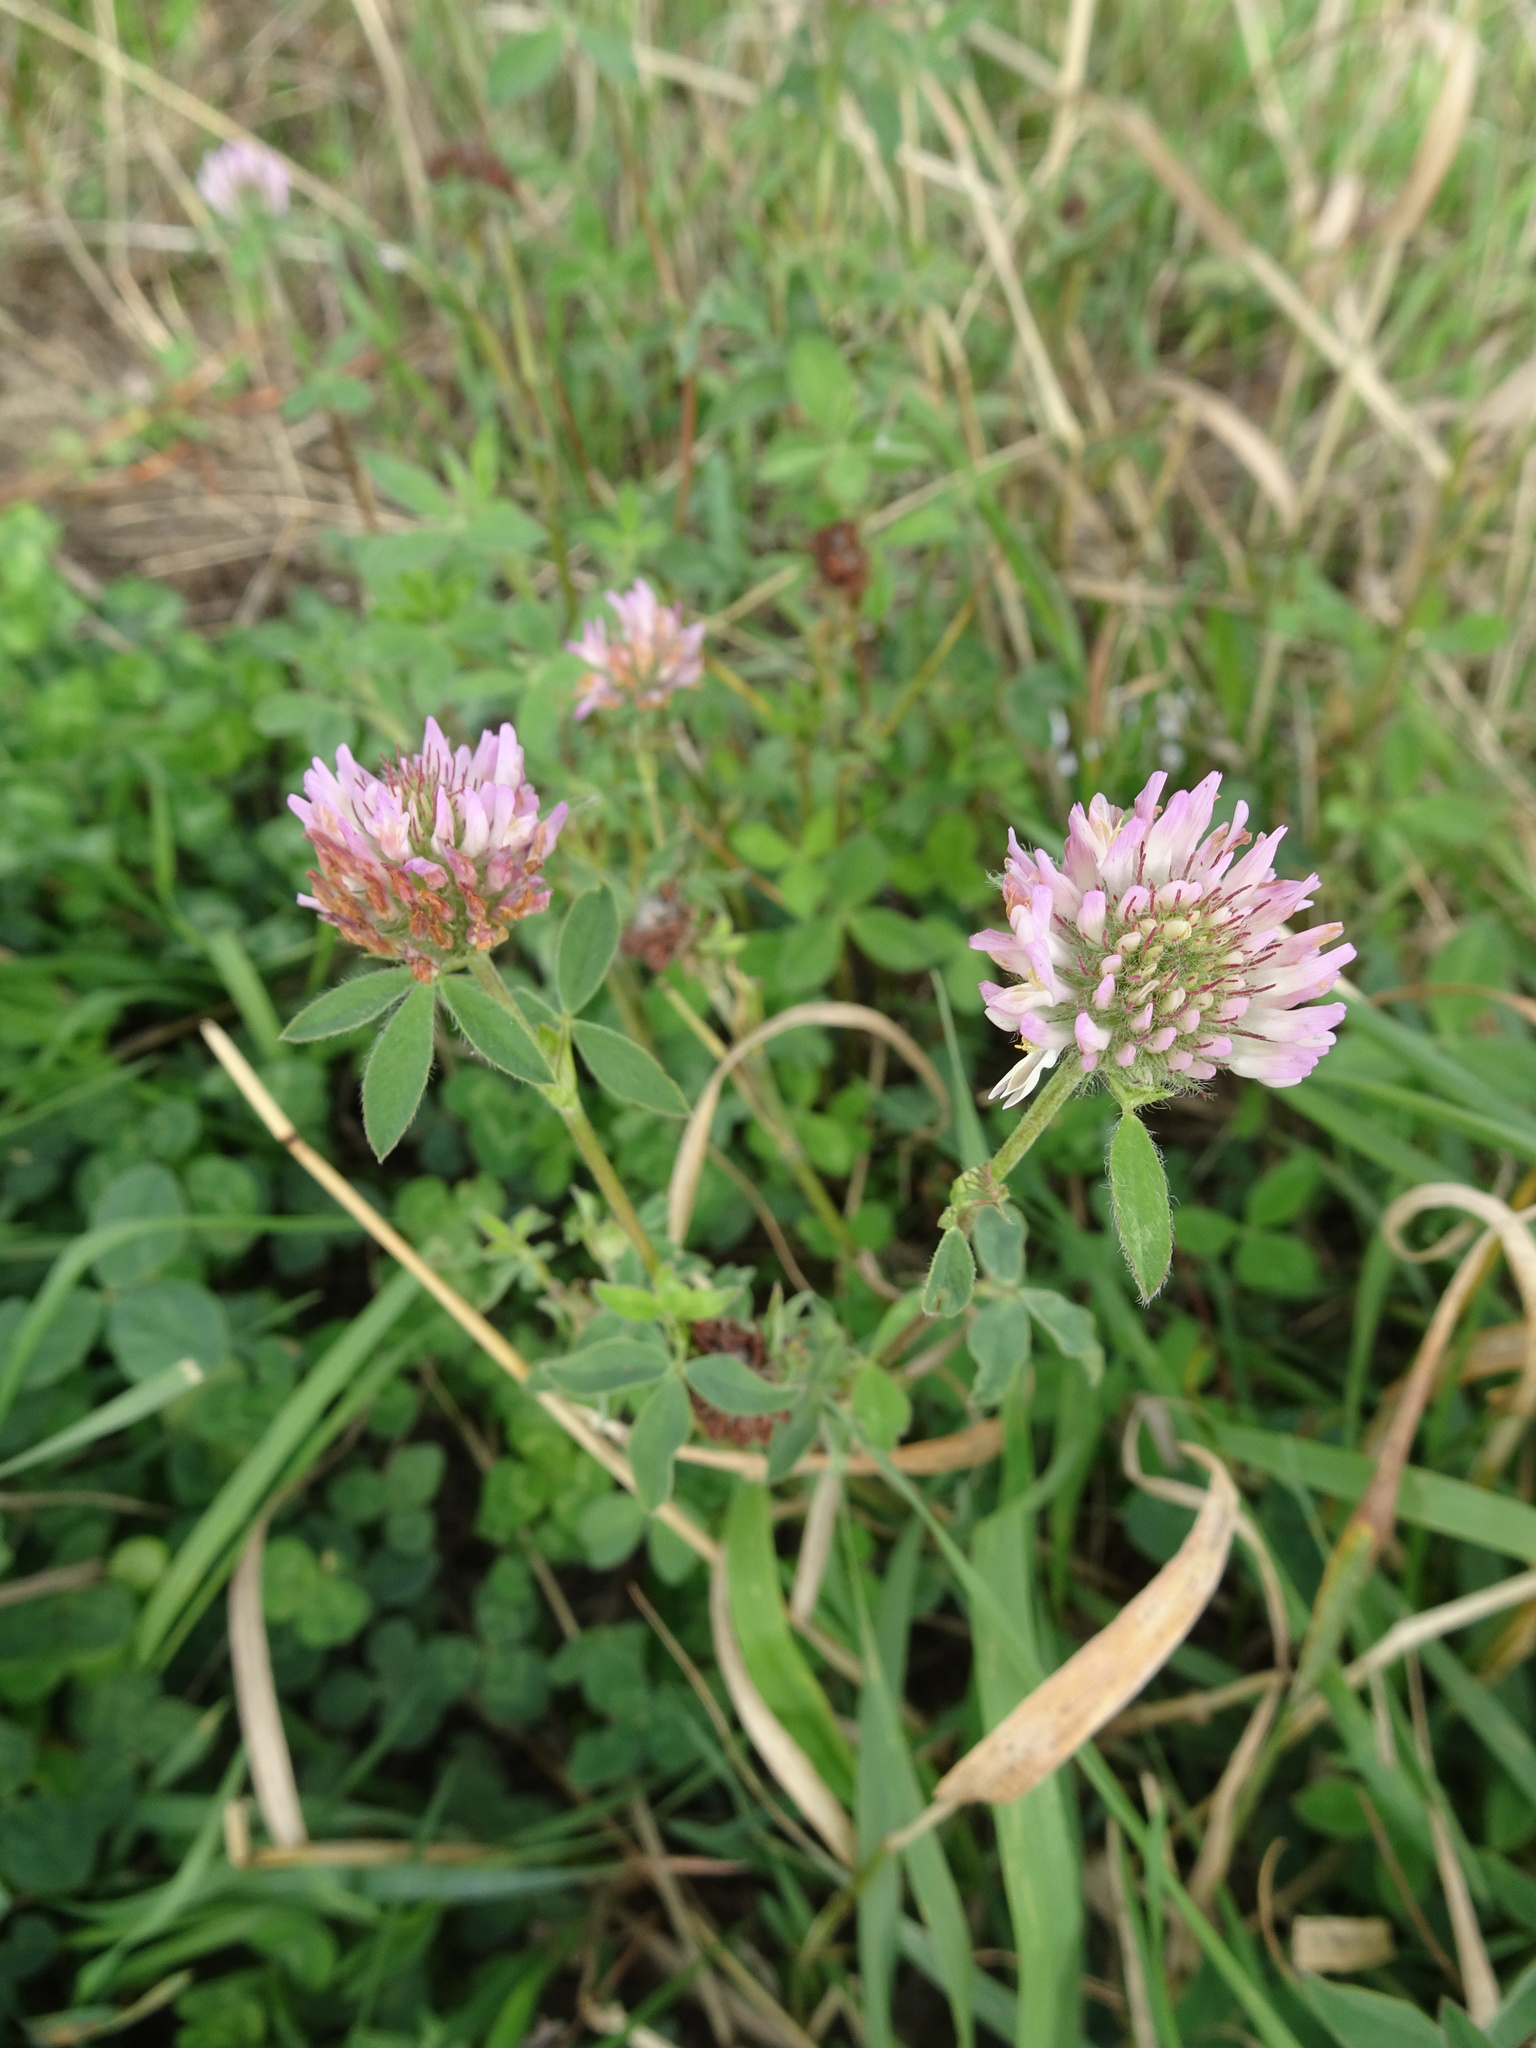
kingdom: Plantae
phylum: Tracheophyta
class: Magnoliopsida
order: Fabales
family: Fabaceae
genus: Trifolium
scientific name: Trifolium pratense
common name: Red clover
